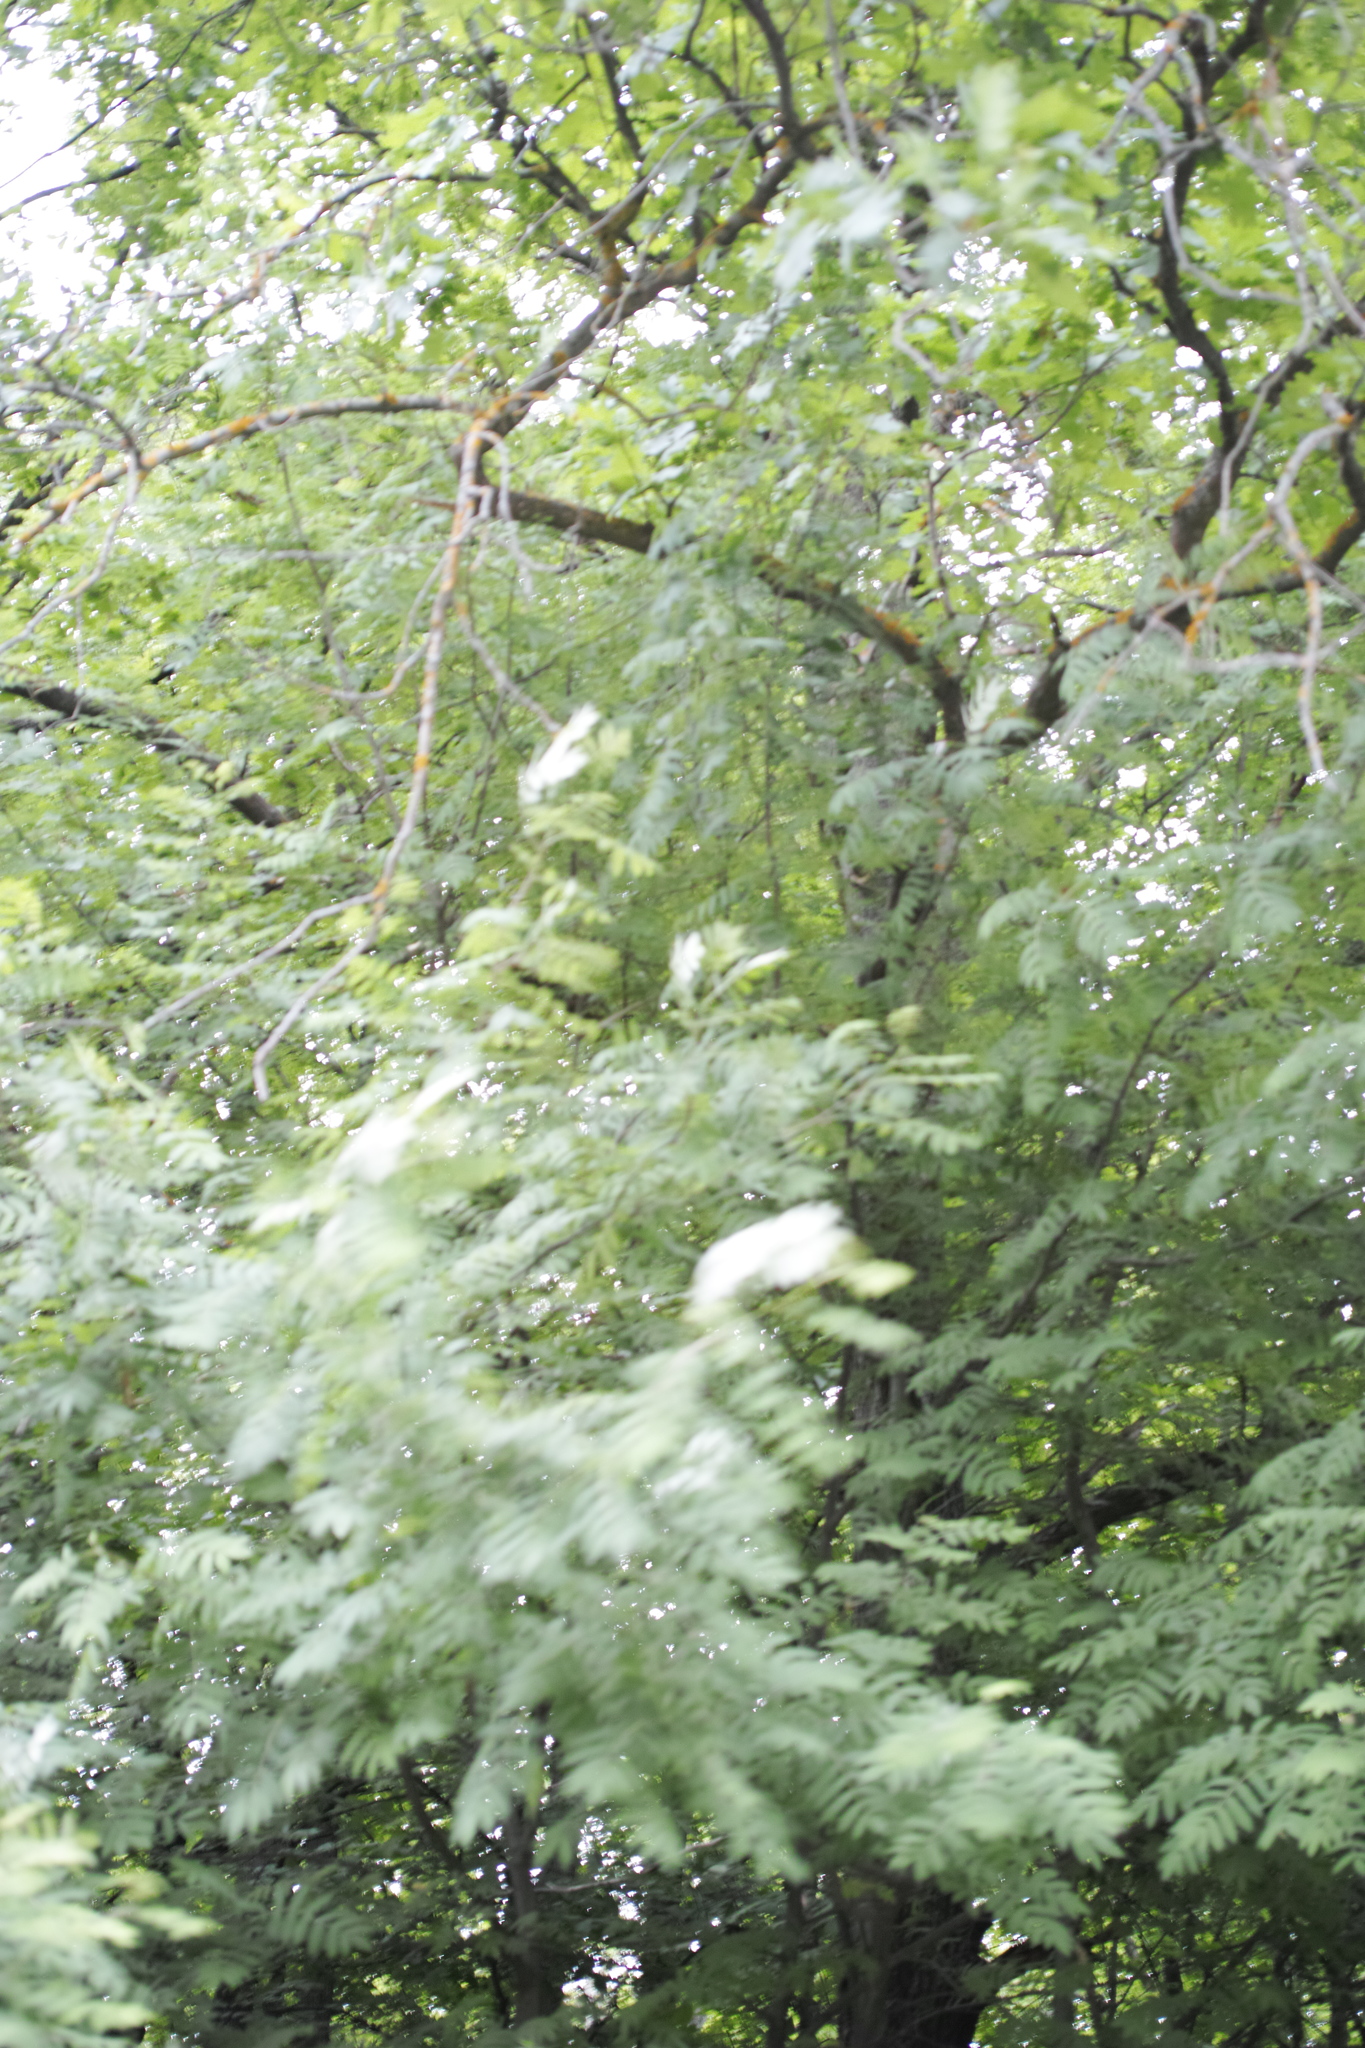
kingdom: Plantae
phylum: Tracheophyta
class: Magnoliopsida
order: Rosales
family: Rosaceae
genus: Sorbus
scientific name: Sorbus aucuparia
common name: Rowan
